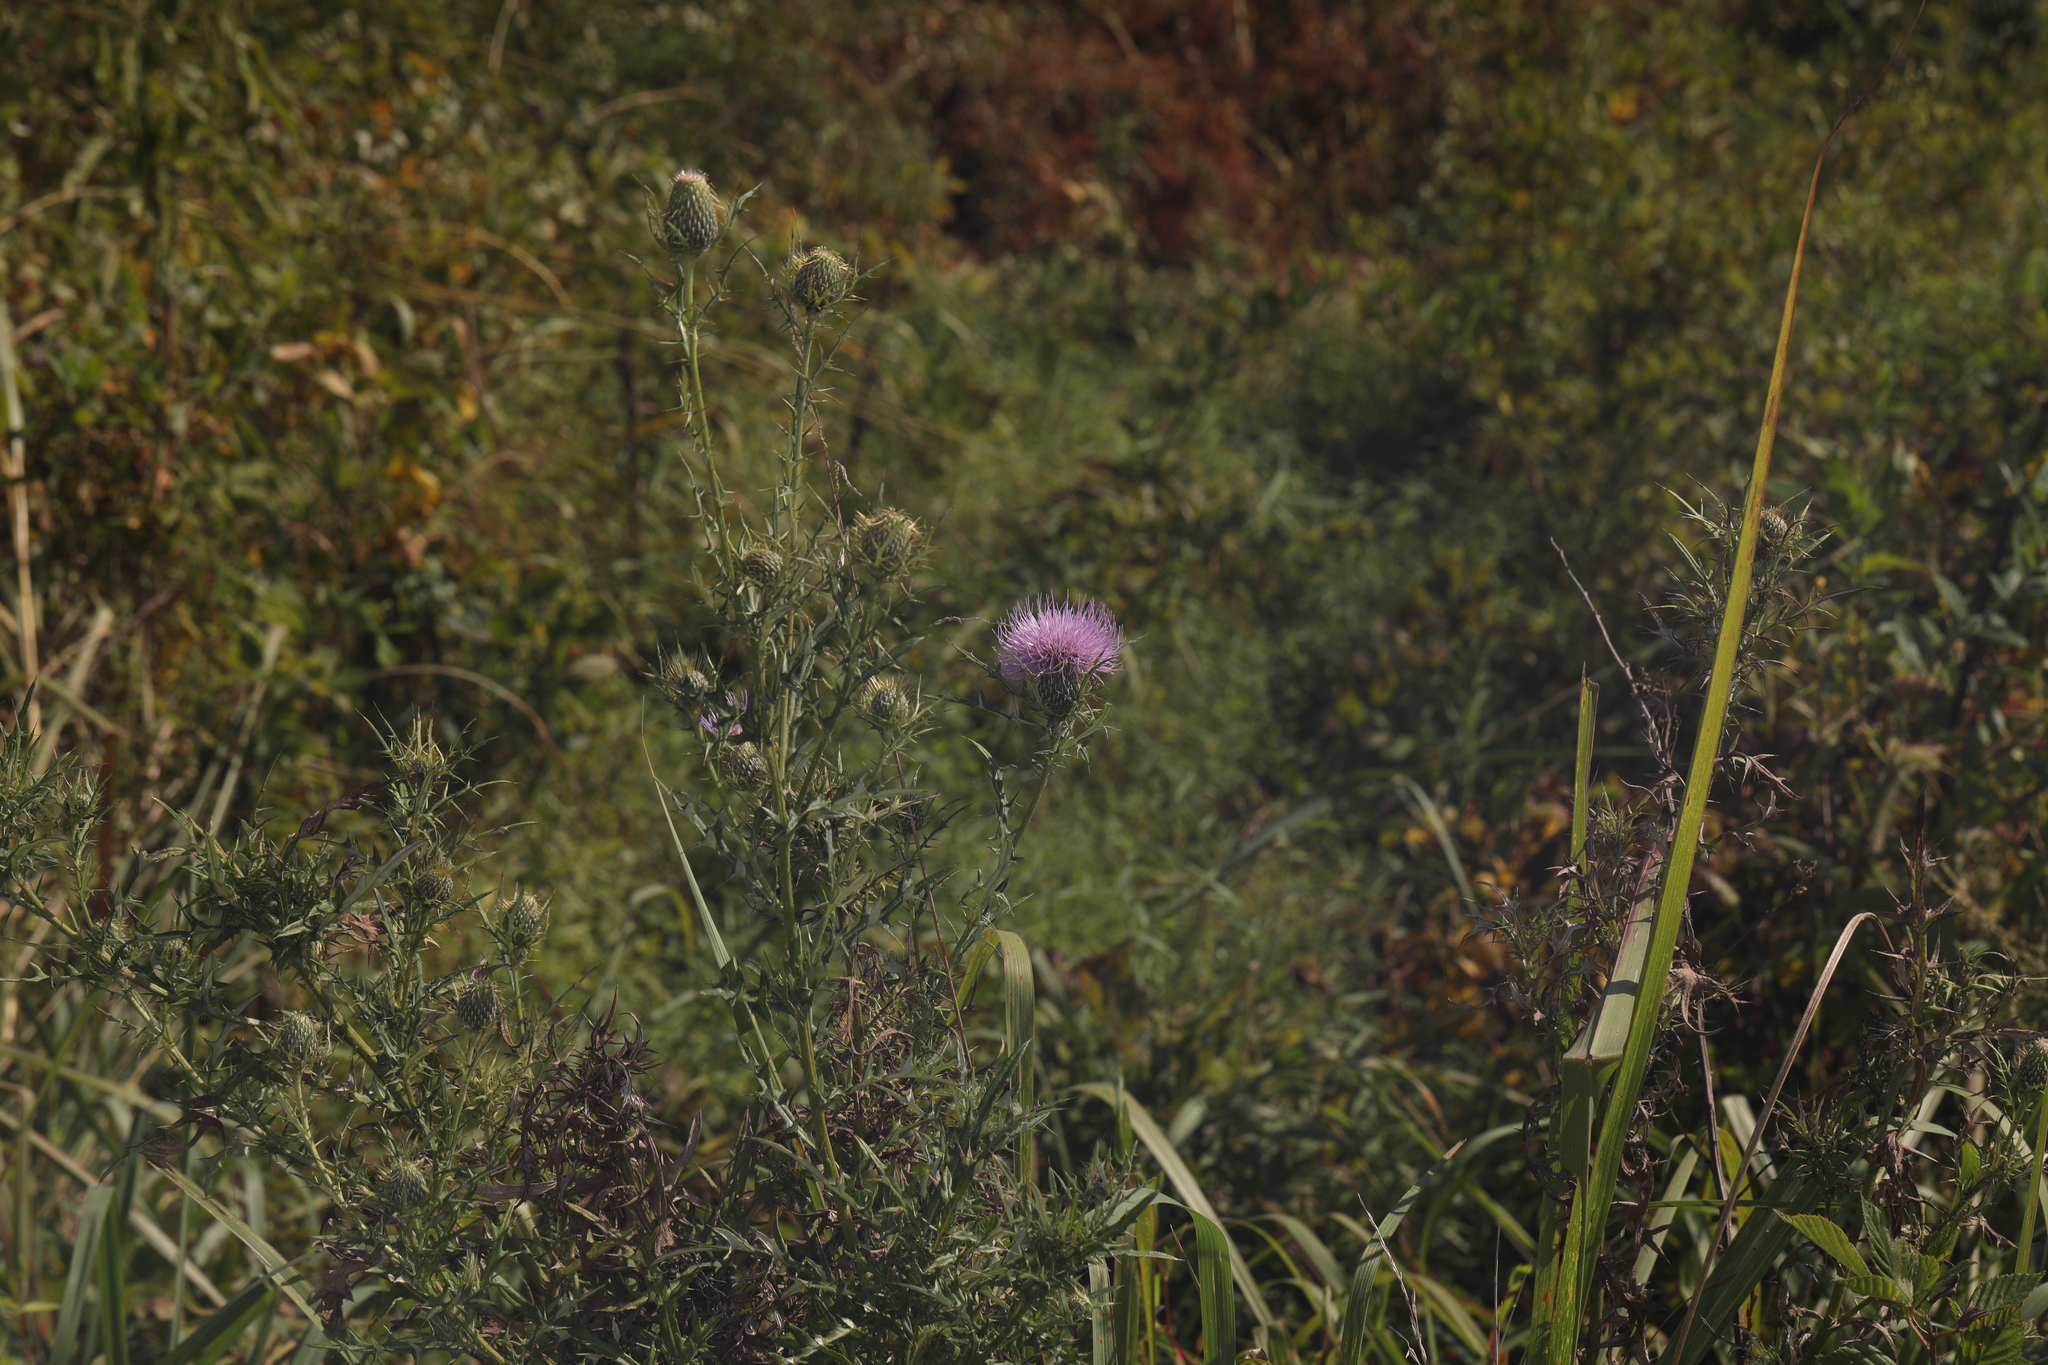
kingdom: Plantae
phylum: Tracheophyta
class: Magnoliopsida
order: Asterales
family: Asteraceae
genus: Cirsium
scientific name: Cirsium discolor
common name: Field thistle
